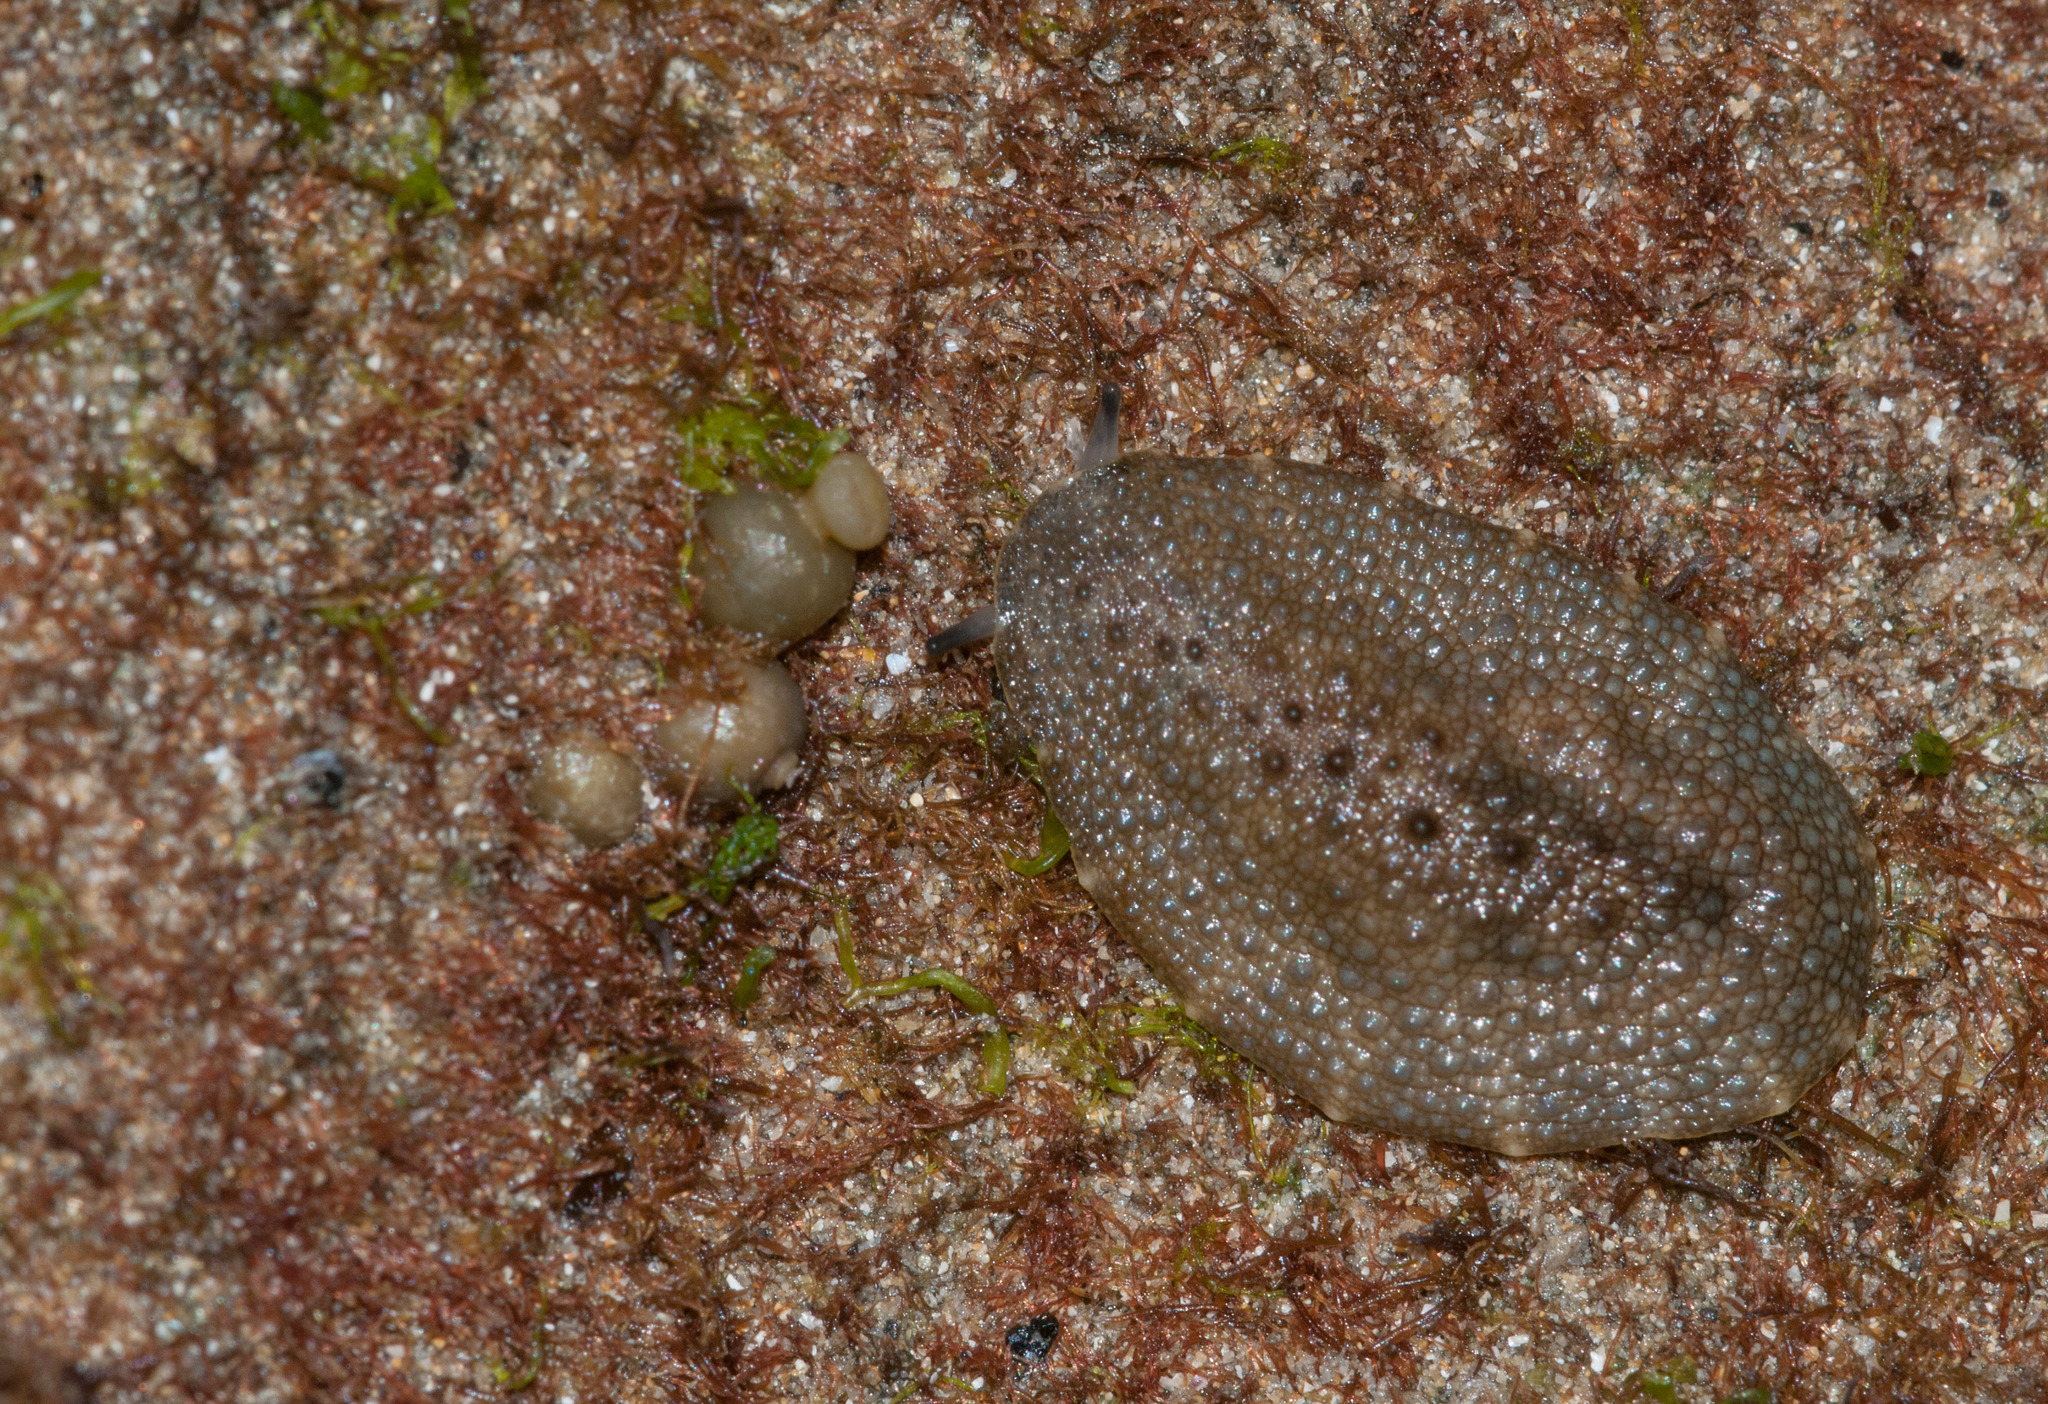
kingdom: Animalia
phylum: Mollusca
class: Gastropoda
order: Systellommatophora
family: Onchidiidae
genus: Onchidella
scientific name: Onchidella nigricans
